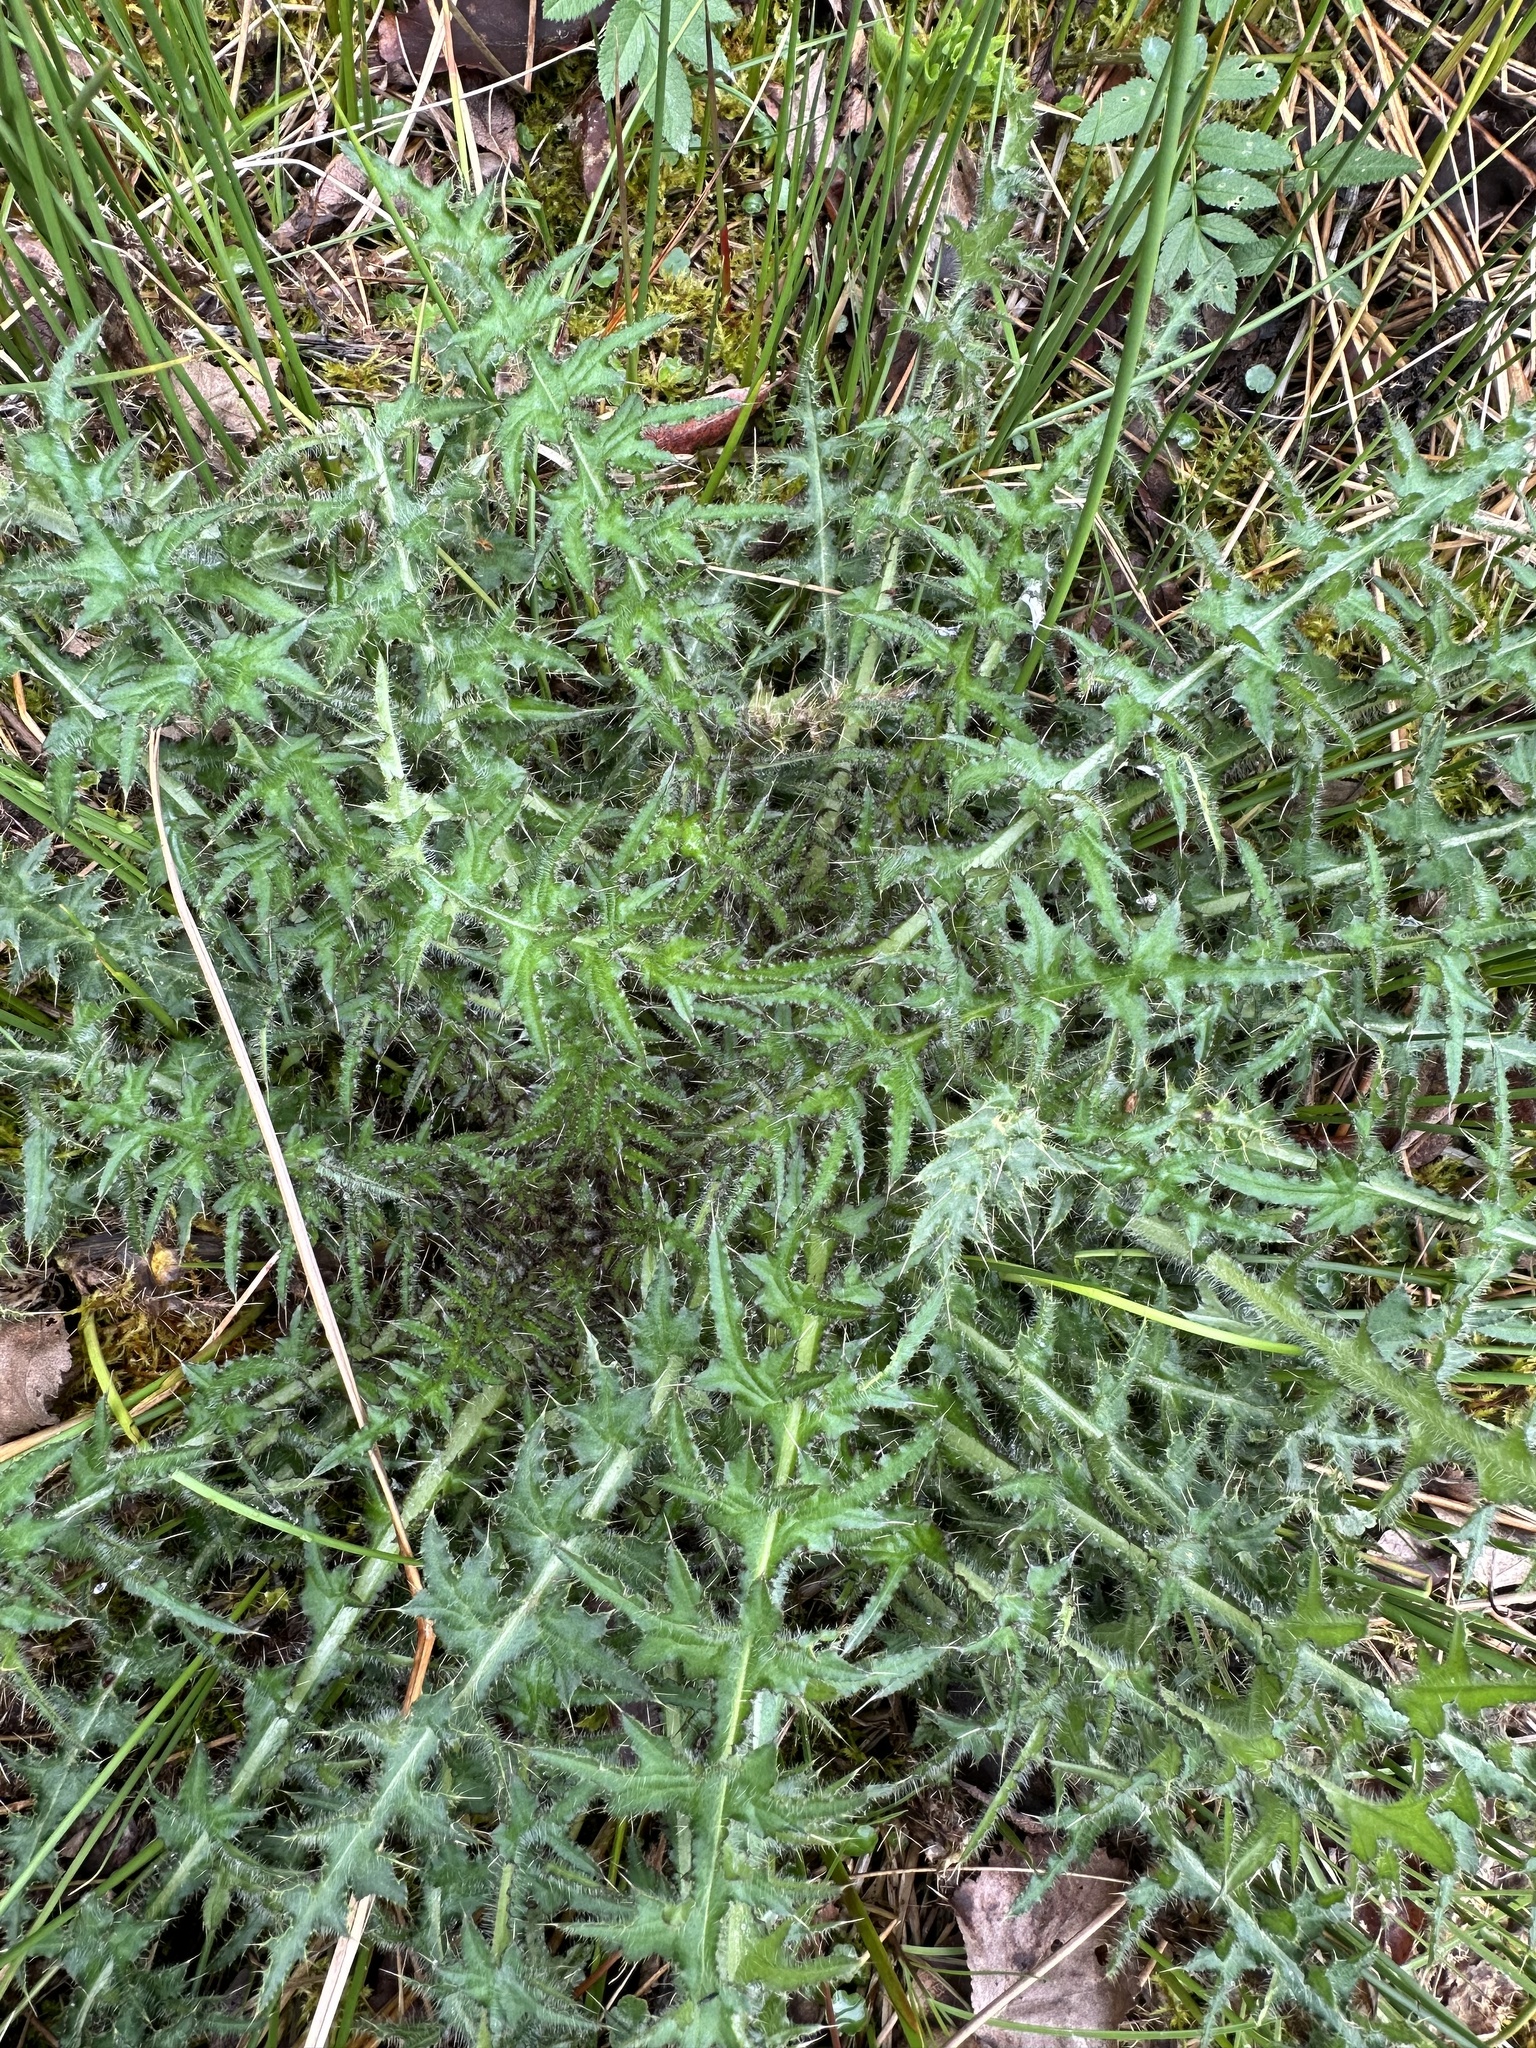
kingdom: Plantae
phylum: Tracheophyta
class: Magnoliopsida
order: Asterales
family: Asteraceae
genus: Cirsium
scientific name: Cirsium palustre
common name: Marsh thistle
